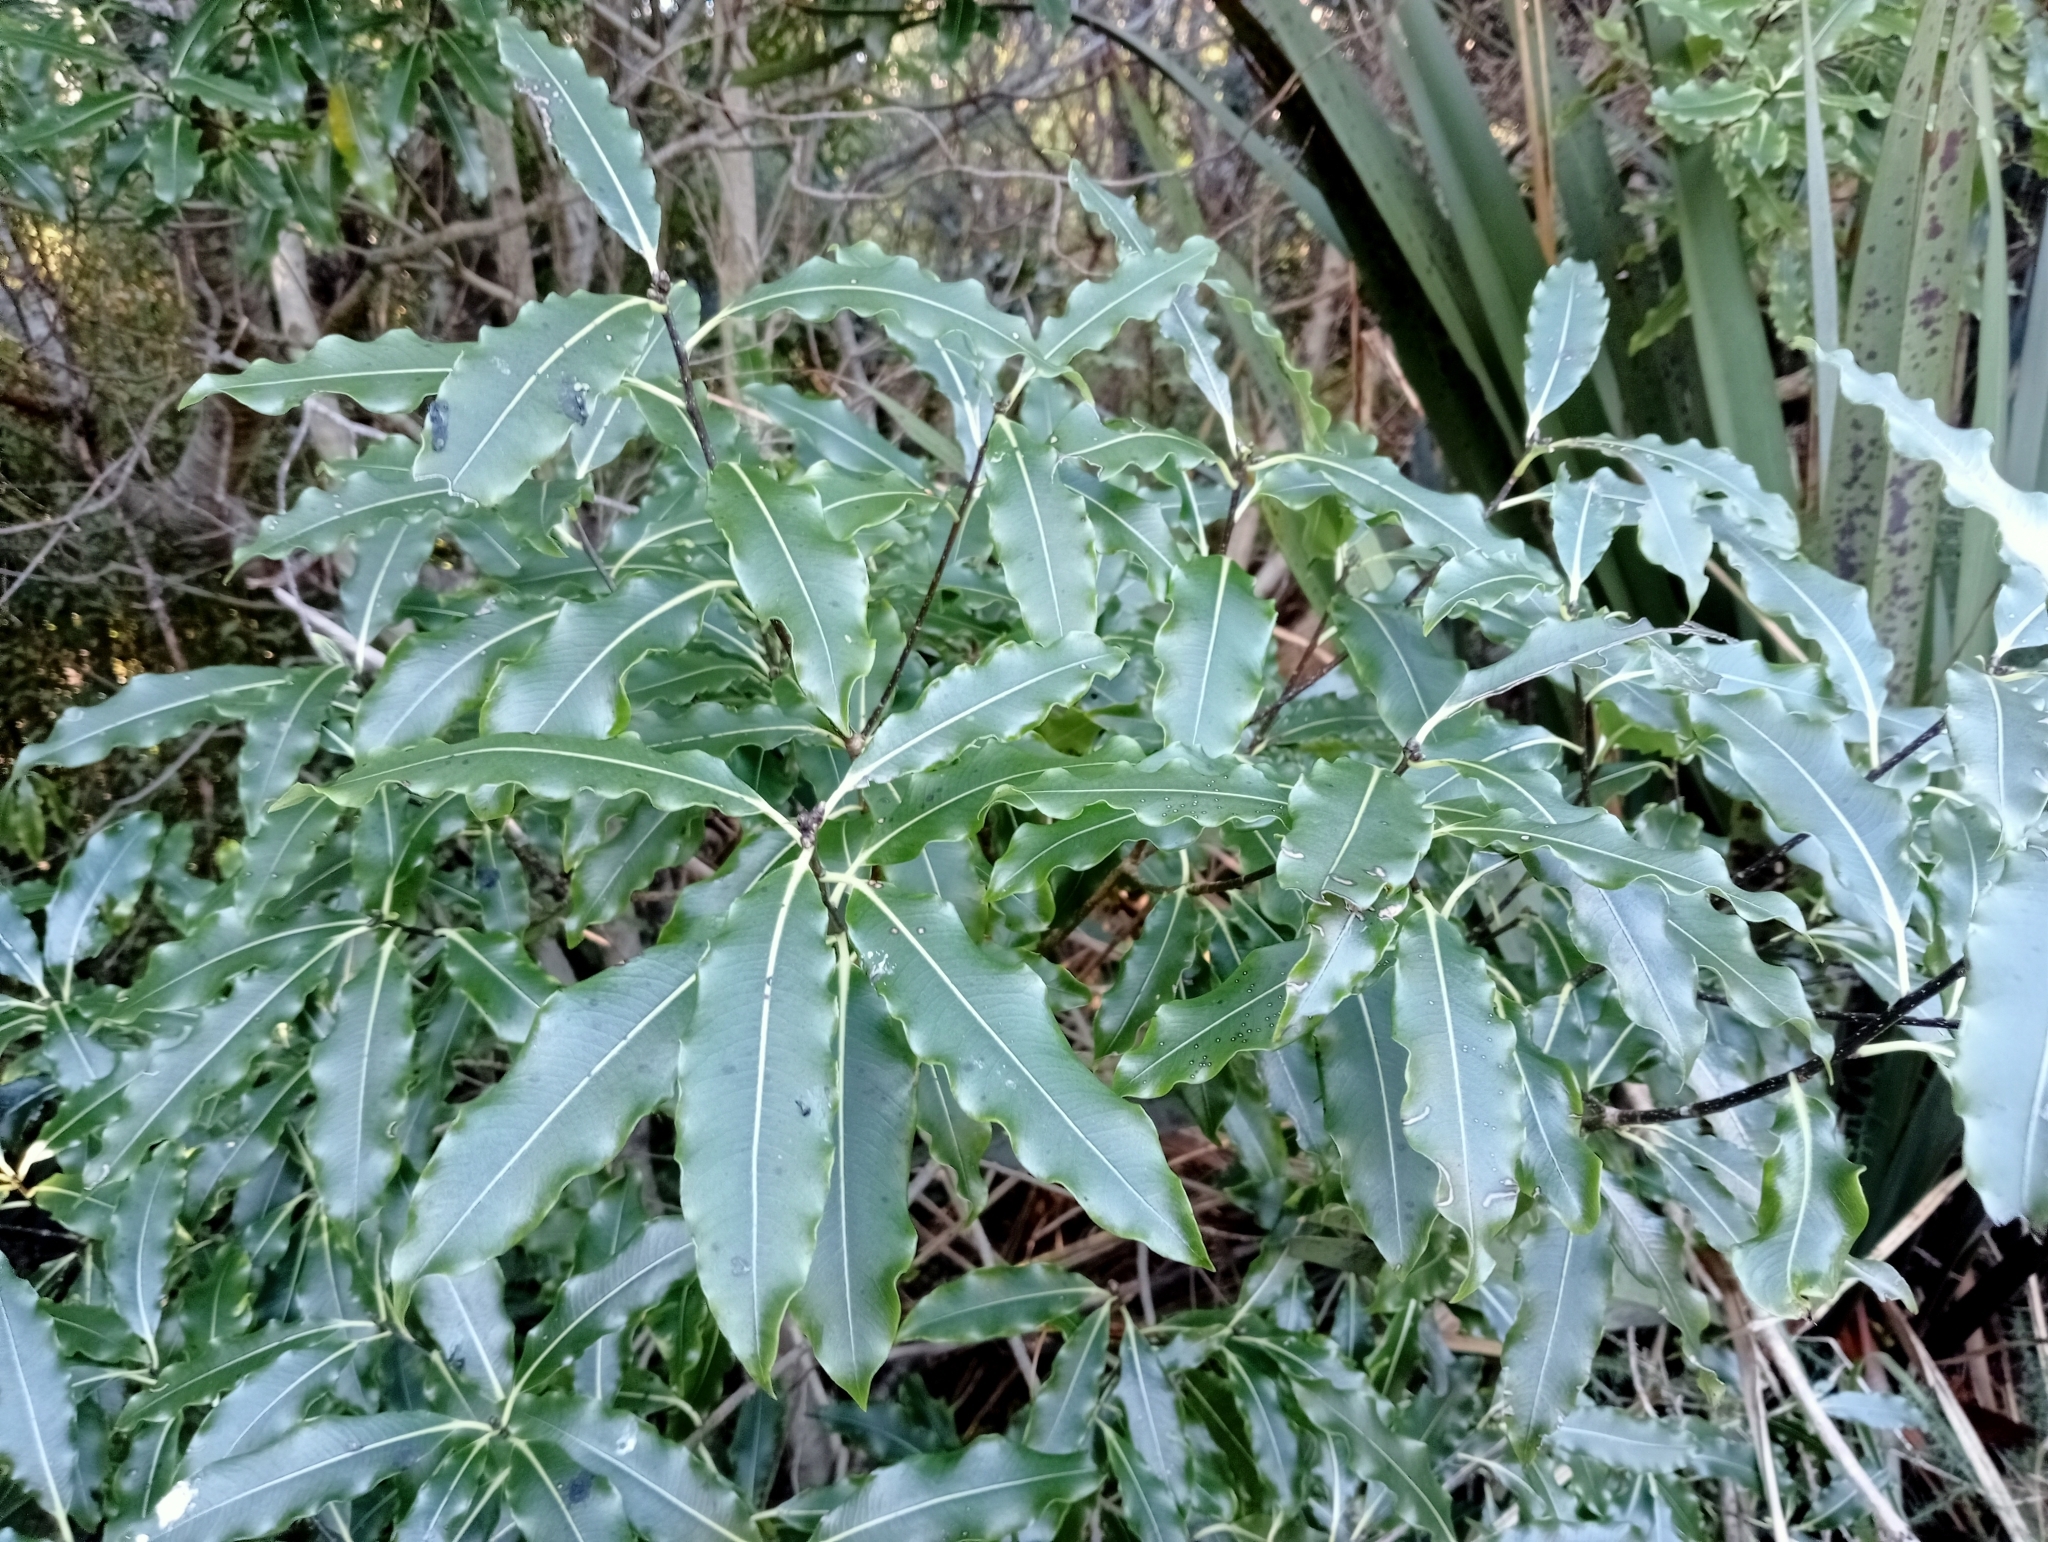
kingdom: Plantae
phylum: Tracheophyta
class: Magnoliopsida
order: Apiales
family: Pittosporaceae
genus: Pittosporum
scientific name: Pittosporum eugenioides
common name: Lemonwood
